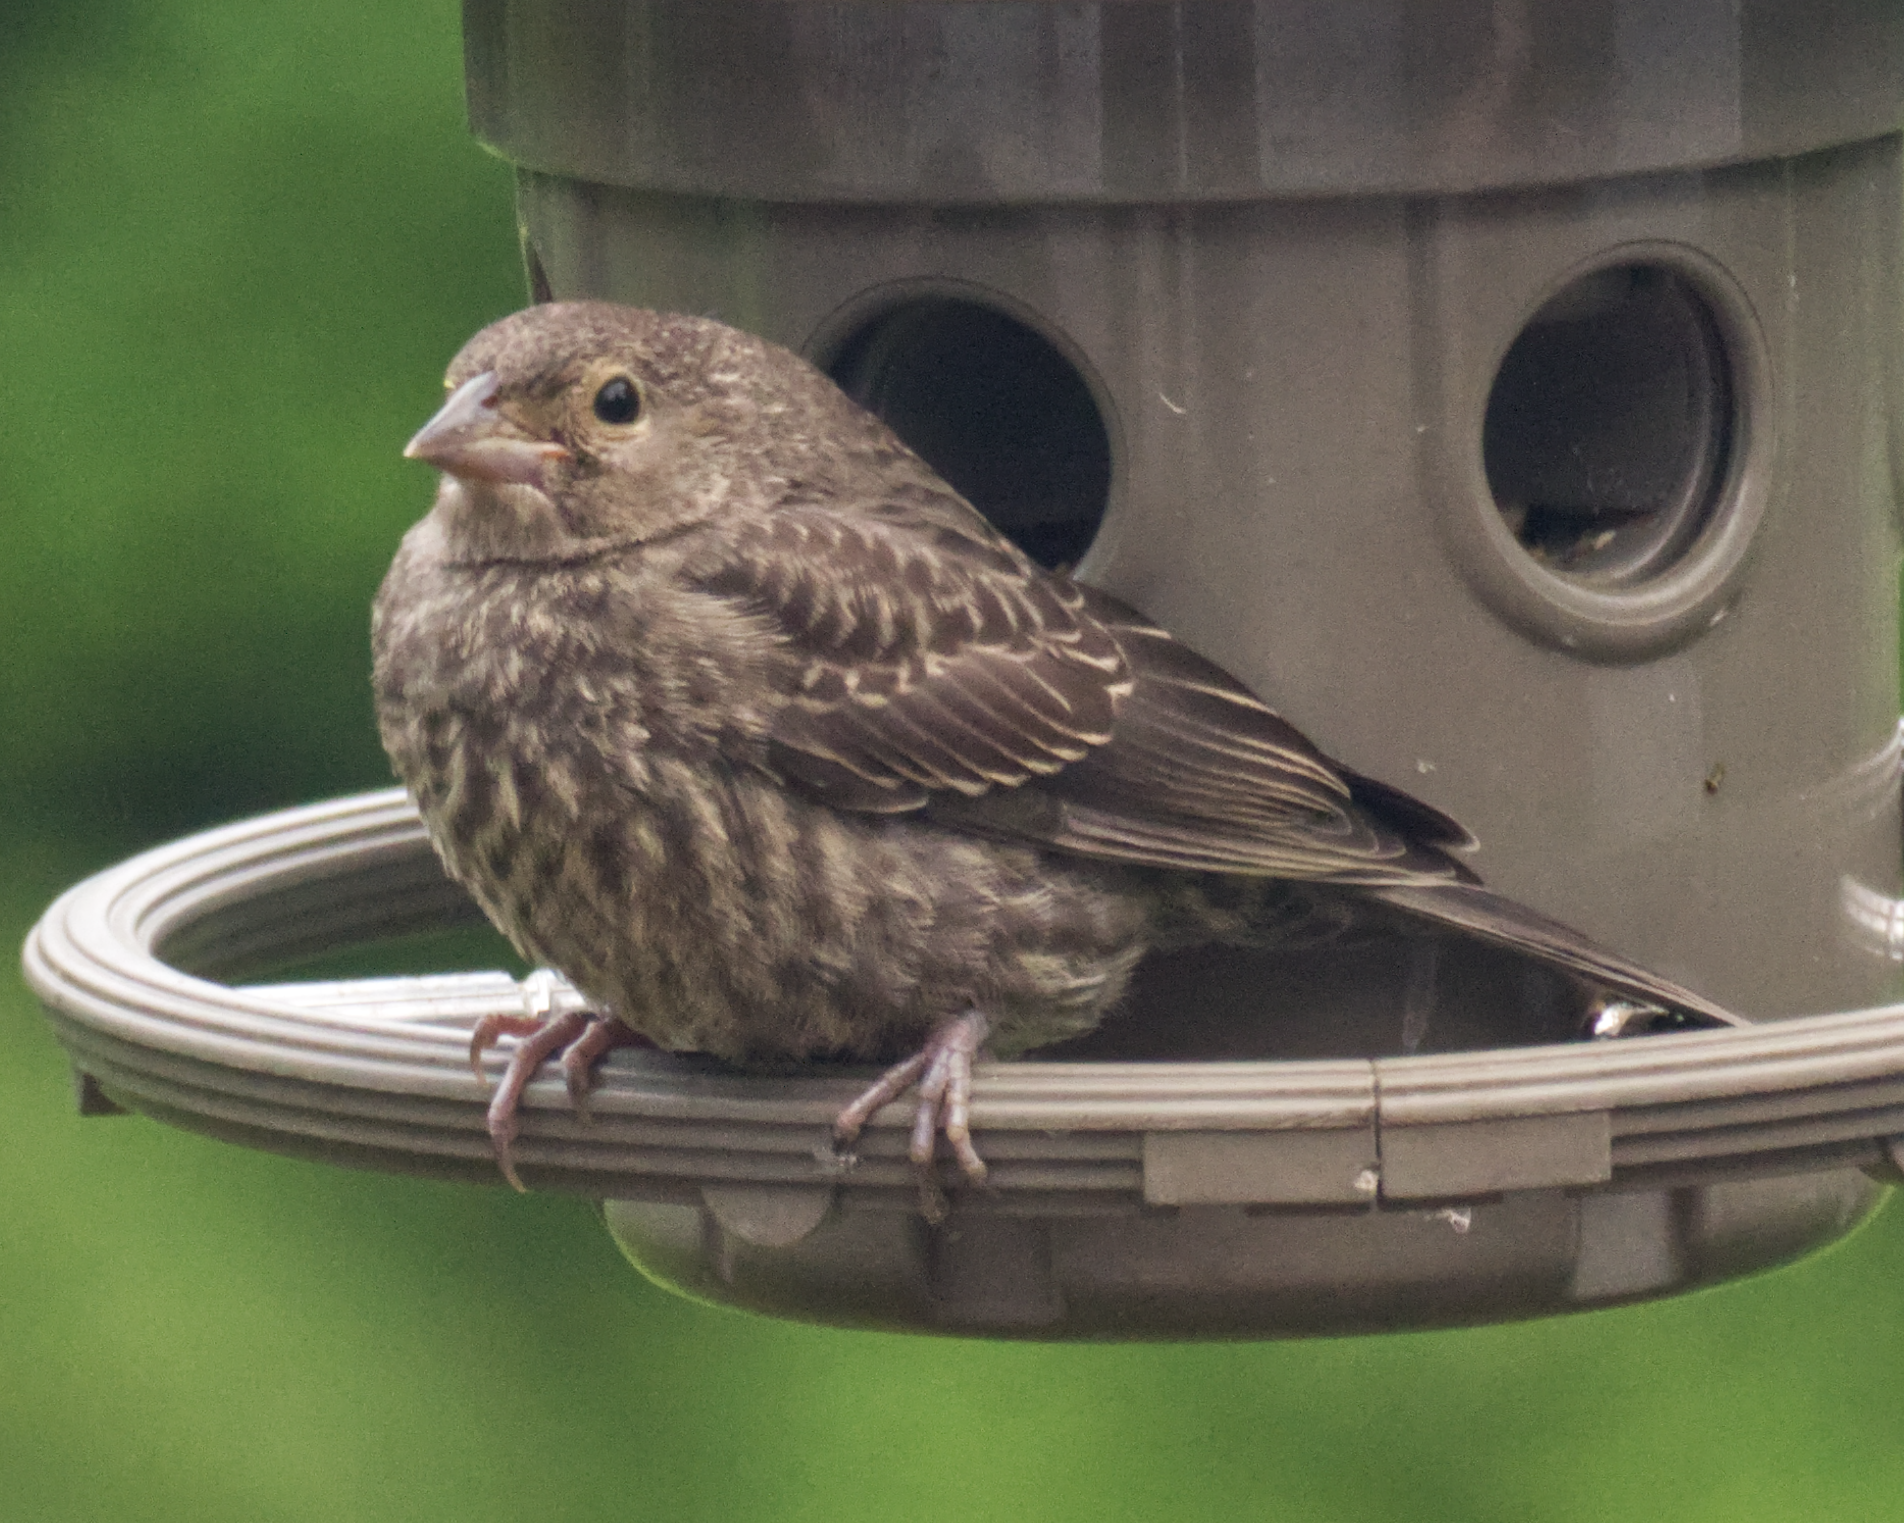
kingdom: Animalia
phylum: Chordata
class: Aves
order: Passeriformes
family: Icteridae
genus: Molothrus
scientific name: Molothrus ater
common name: Brown-headed cowbird
